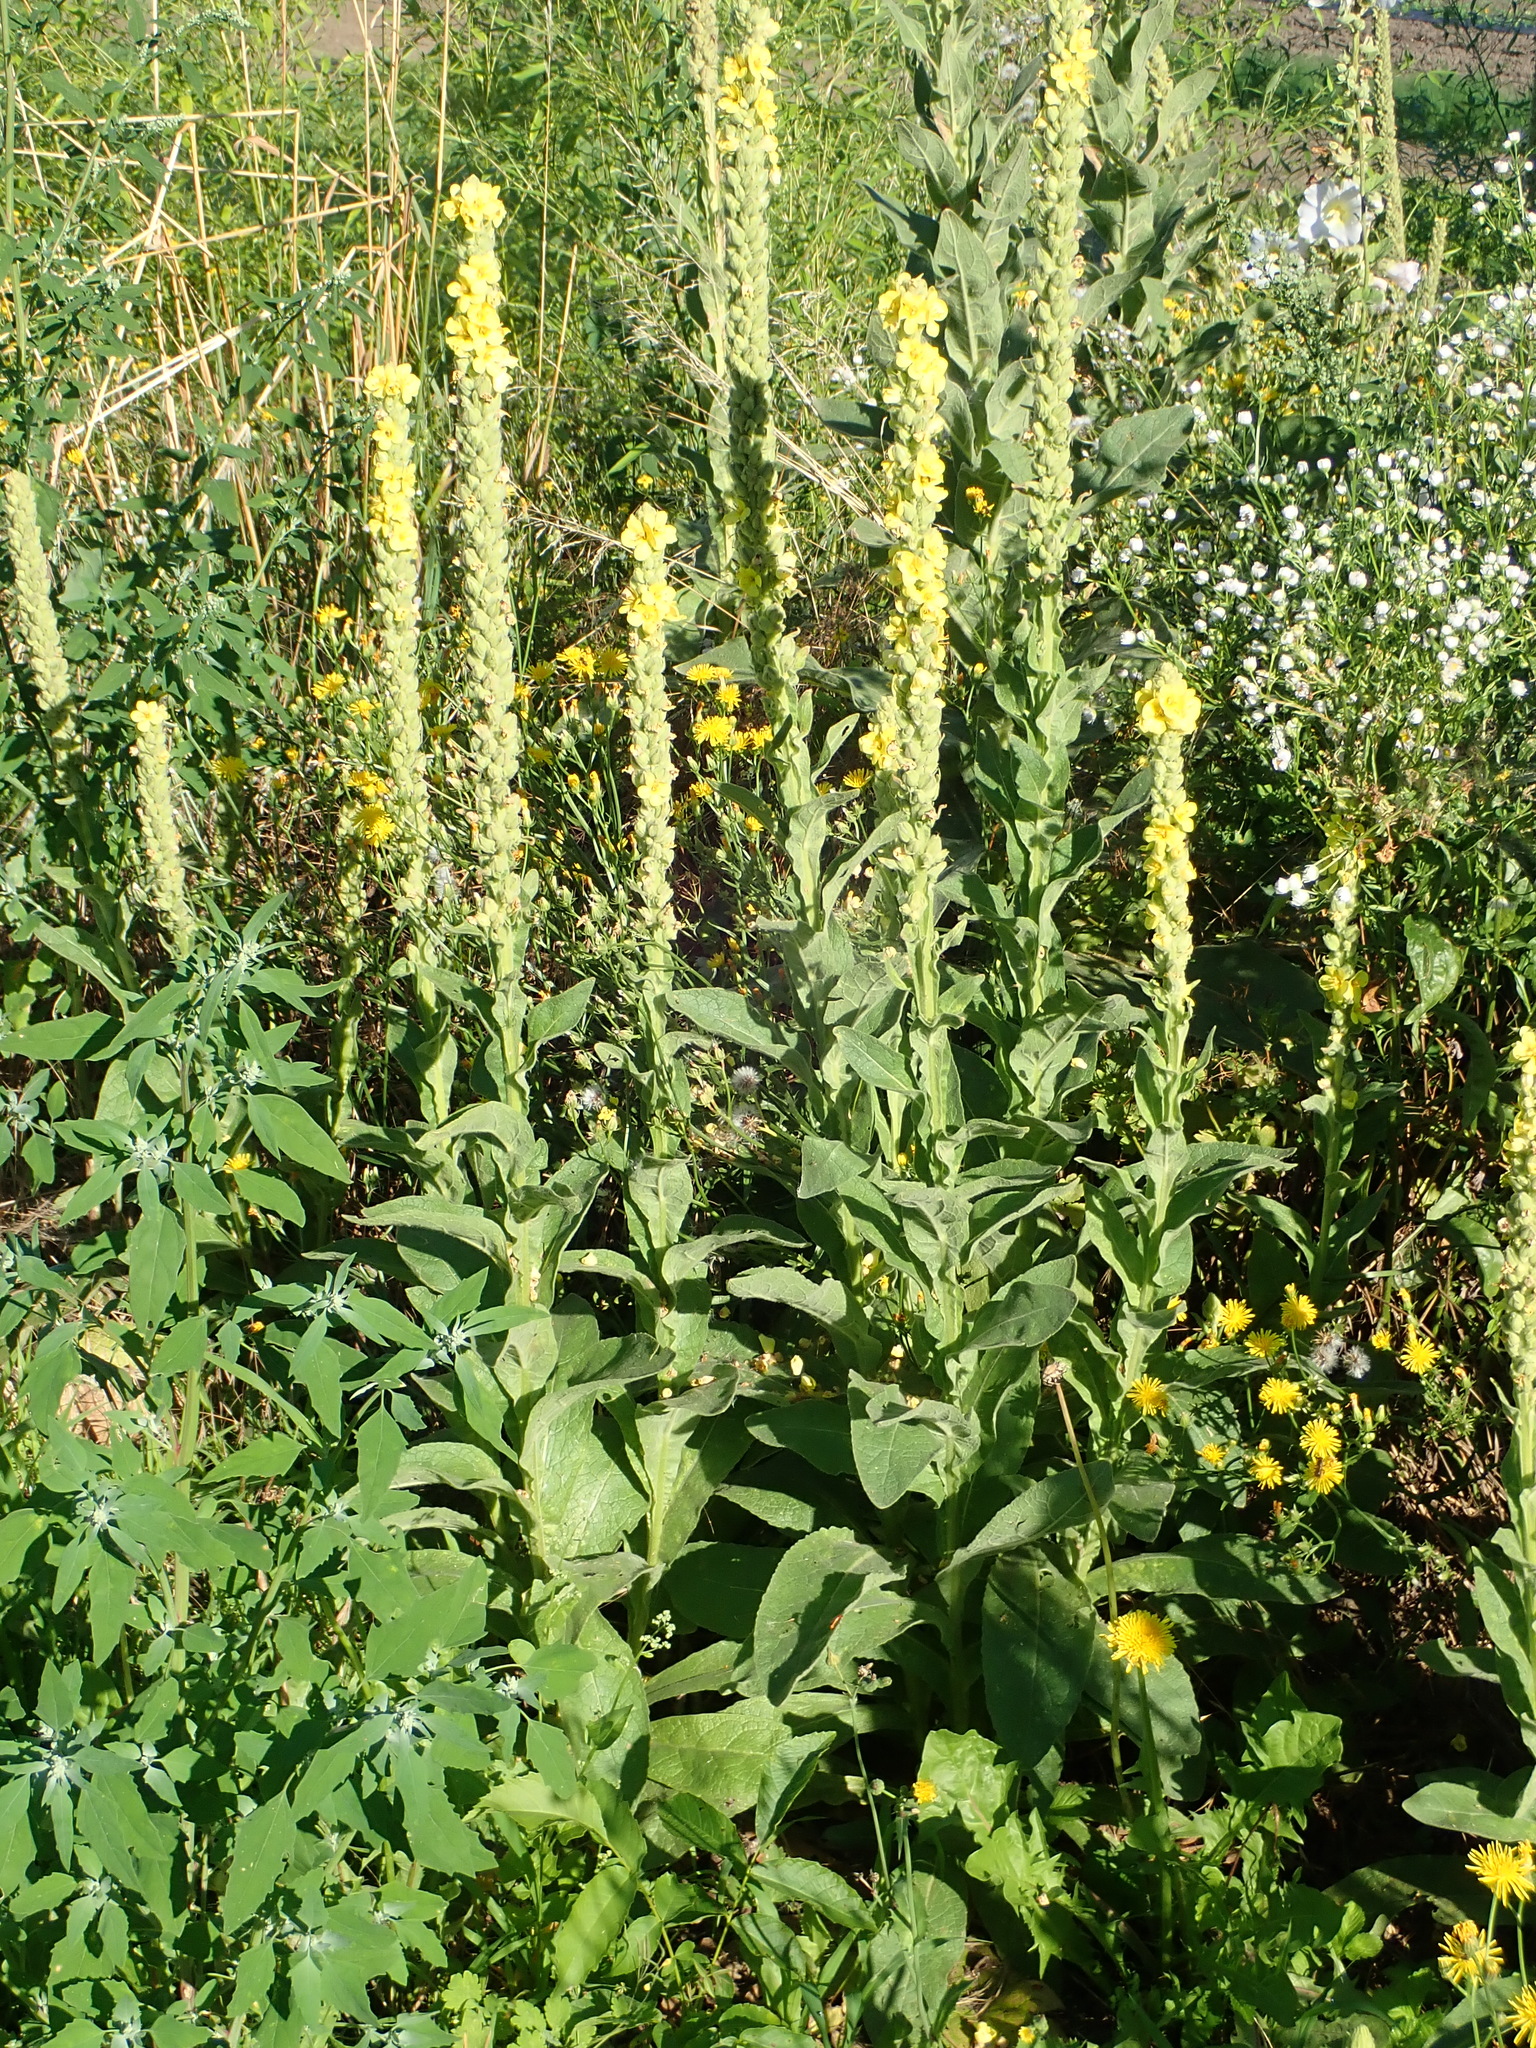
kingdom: Plantae
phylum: Tracheophyta
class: Magnoliopsida
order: Lamiales
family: Scrophulariaceae
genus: Verbascum
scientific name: Verbascum thapsus
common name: Common mullein
